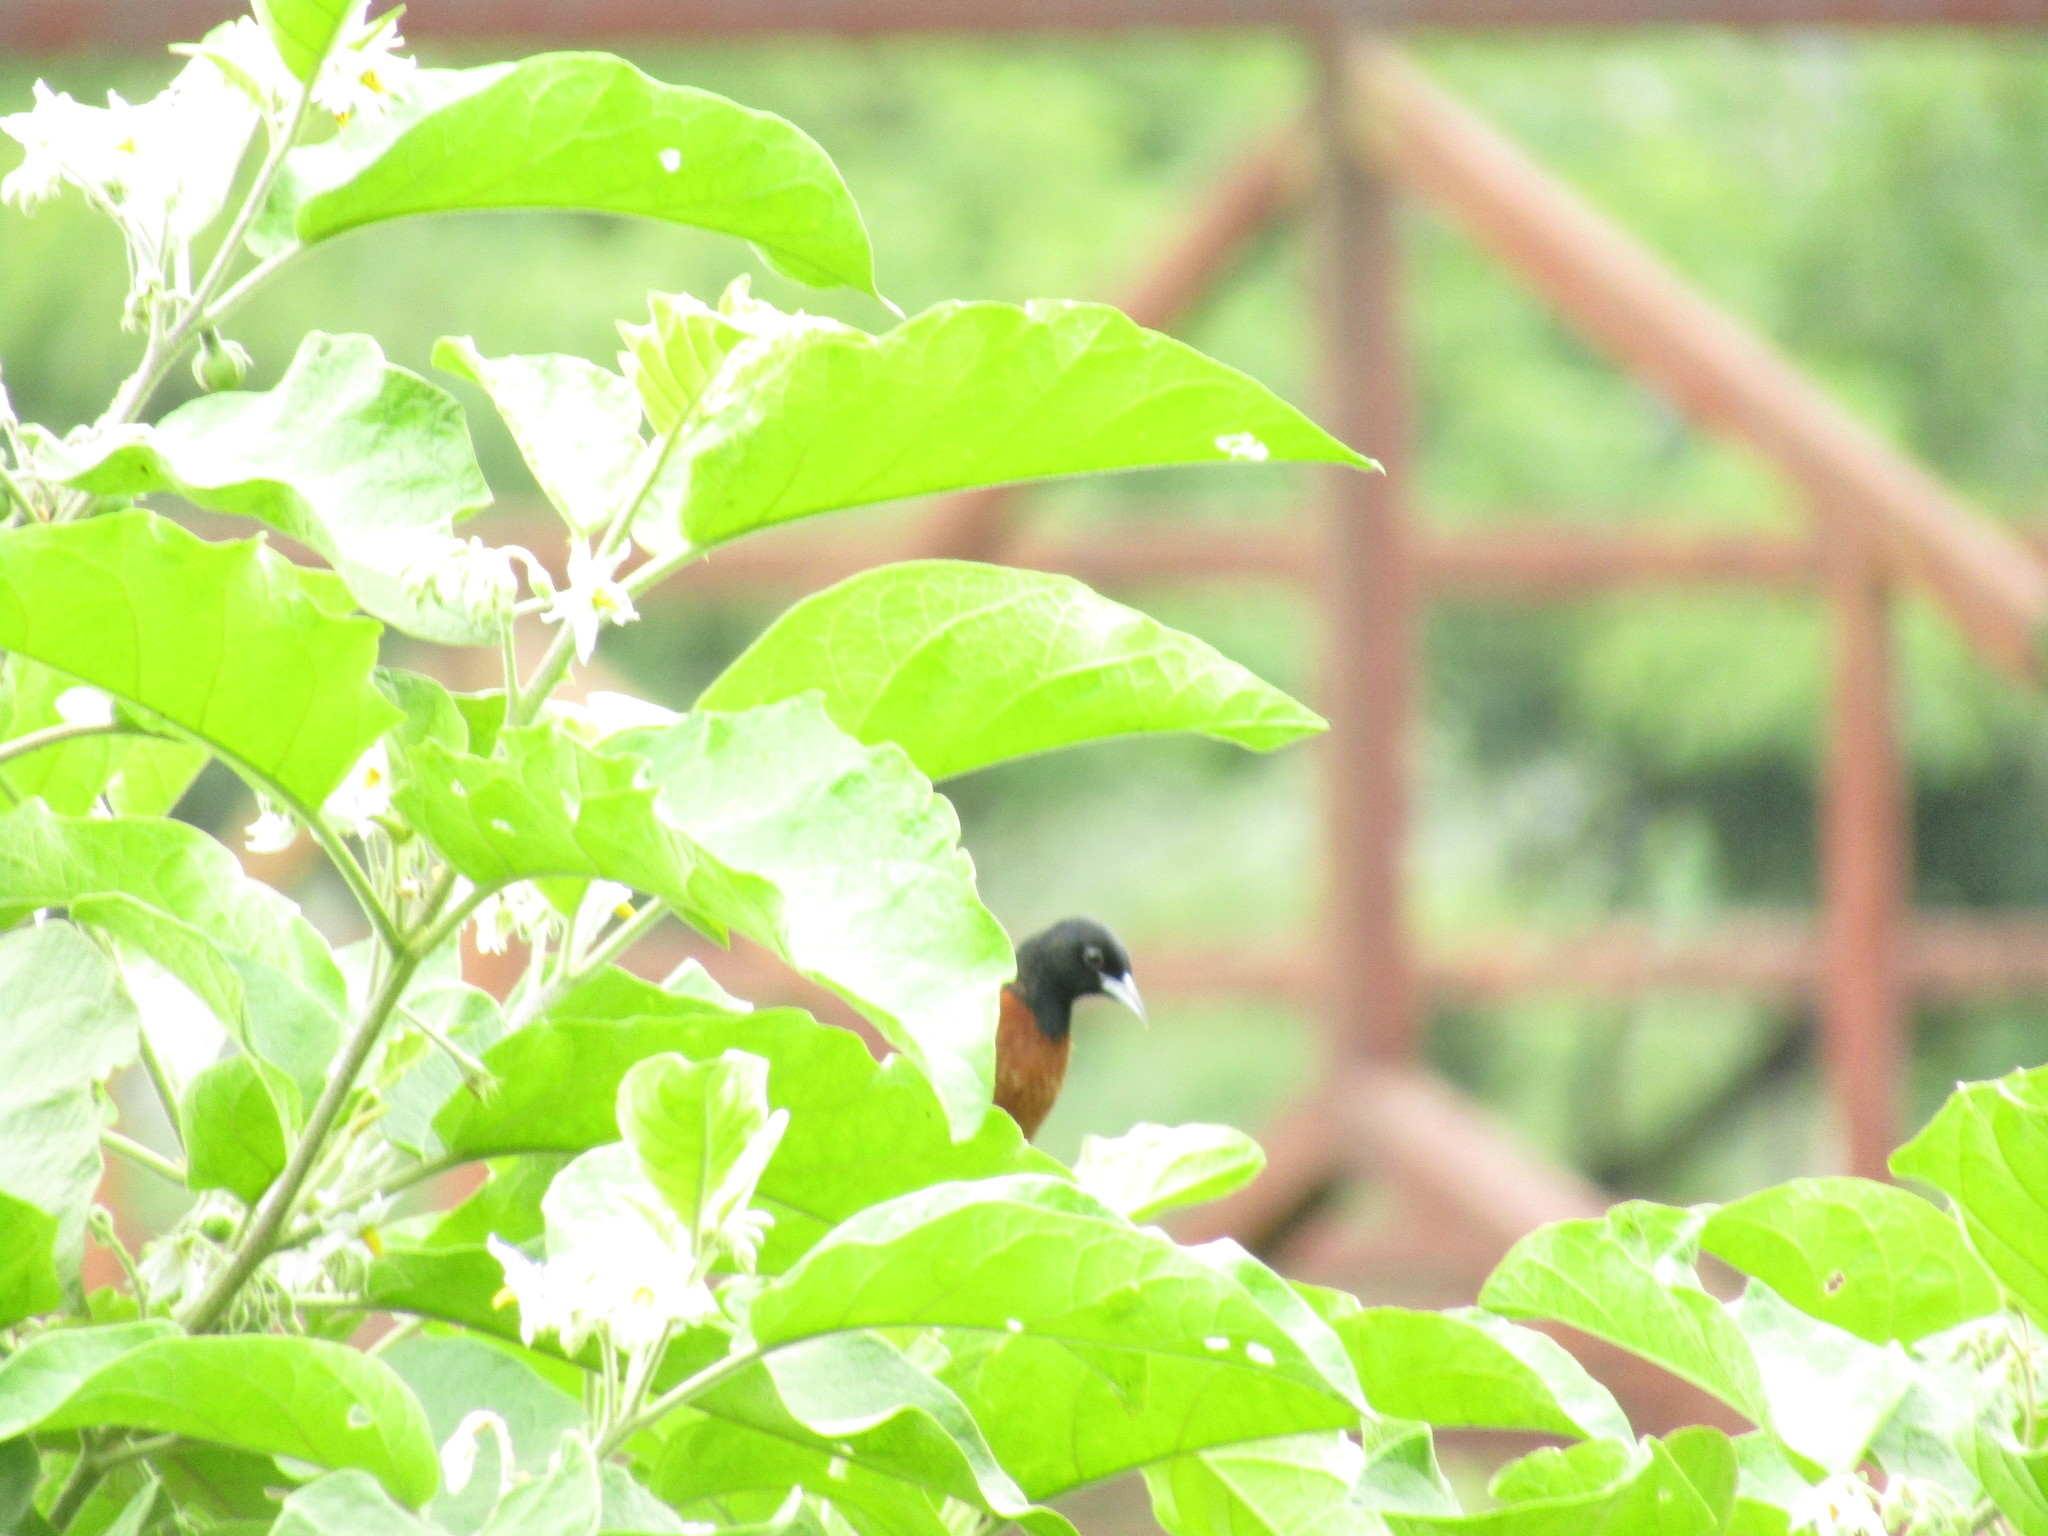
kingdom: Animalia
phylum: Chordata
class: Aves
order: Passeriformes
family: Icteridae
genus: Icterus
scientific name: Icterus spurius
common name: Orchard oriole
